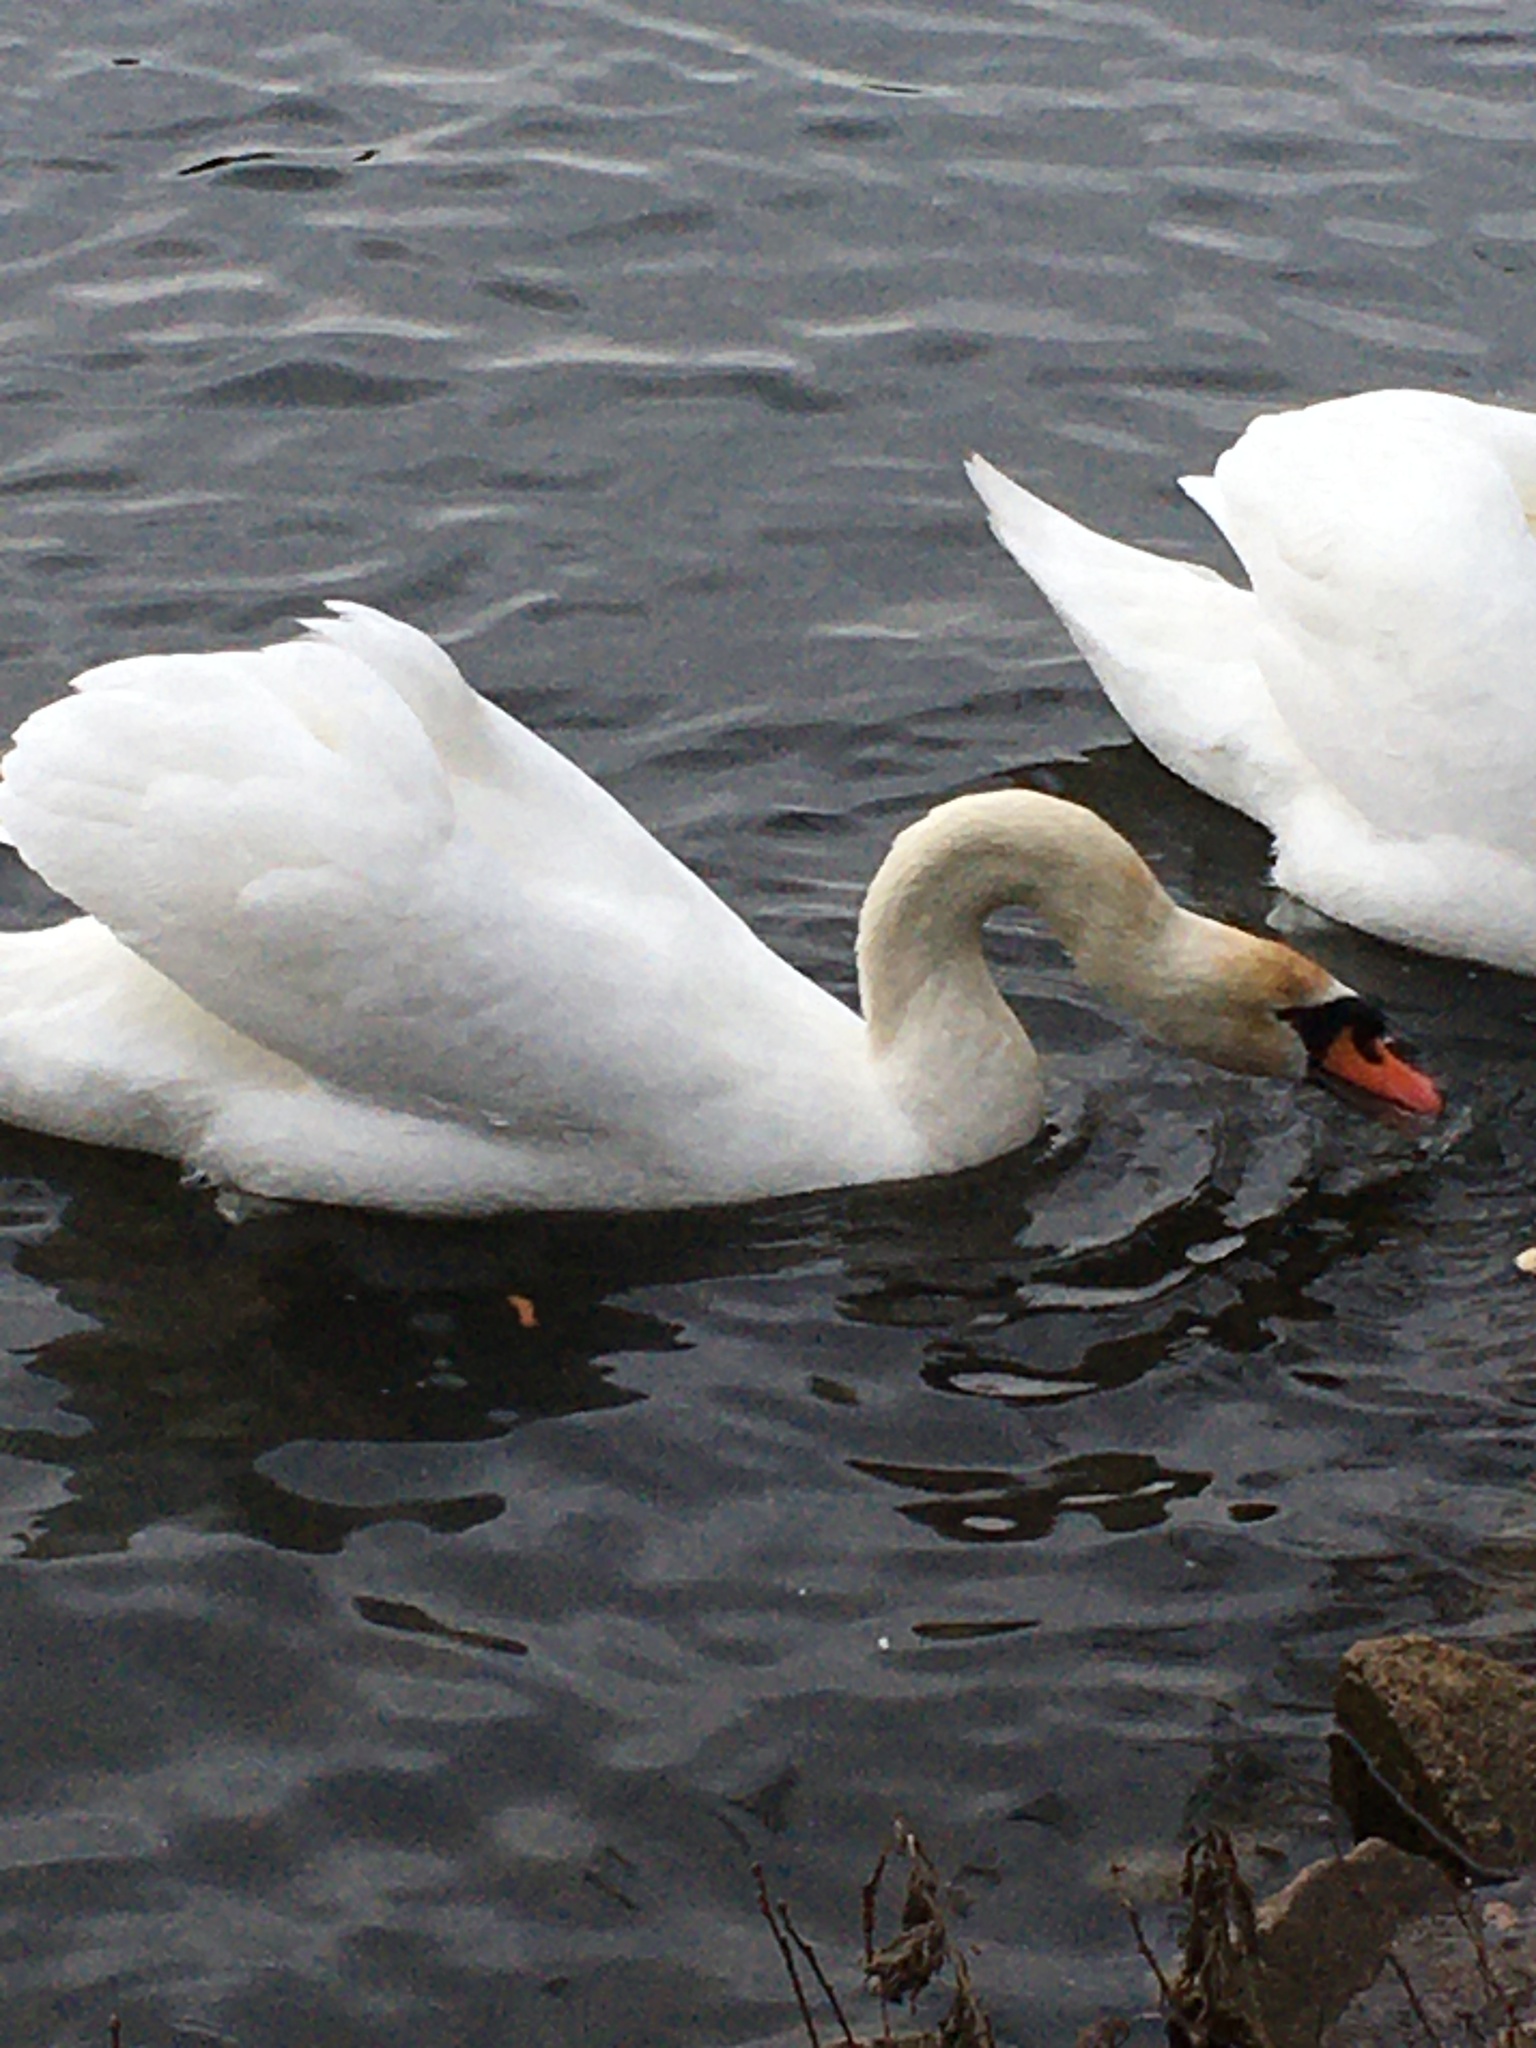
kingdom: Animalia
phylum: Chordata
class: Aves
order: Anseriformes
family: Anatidae
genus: Cygnus
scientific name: Cygnus olor
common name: Mute swan
